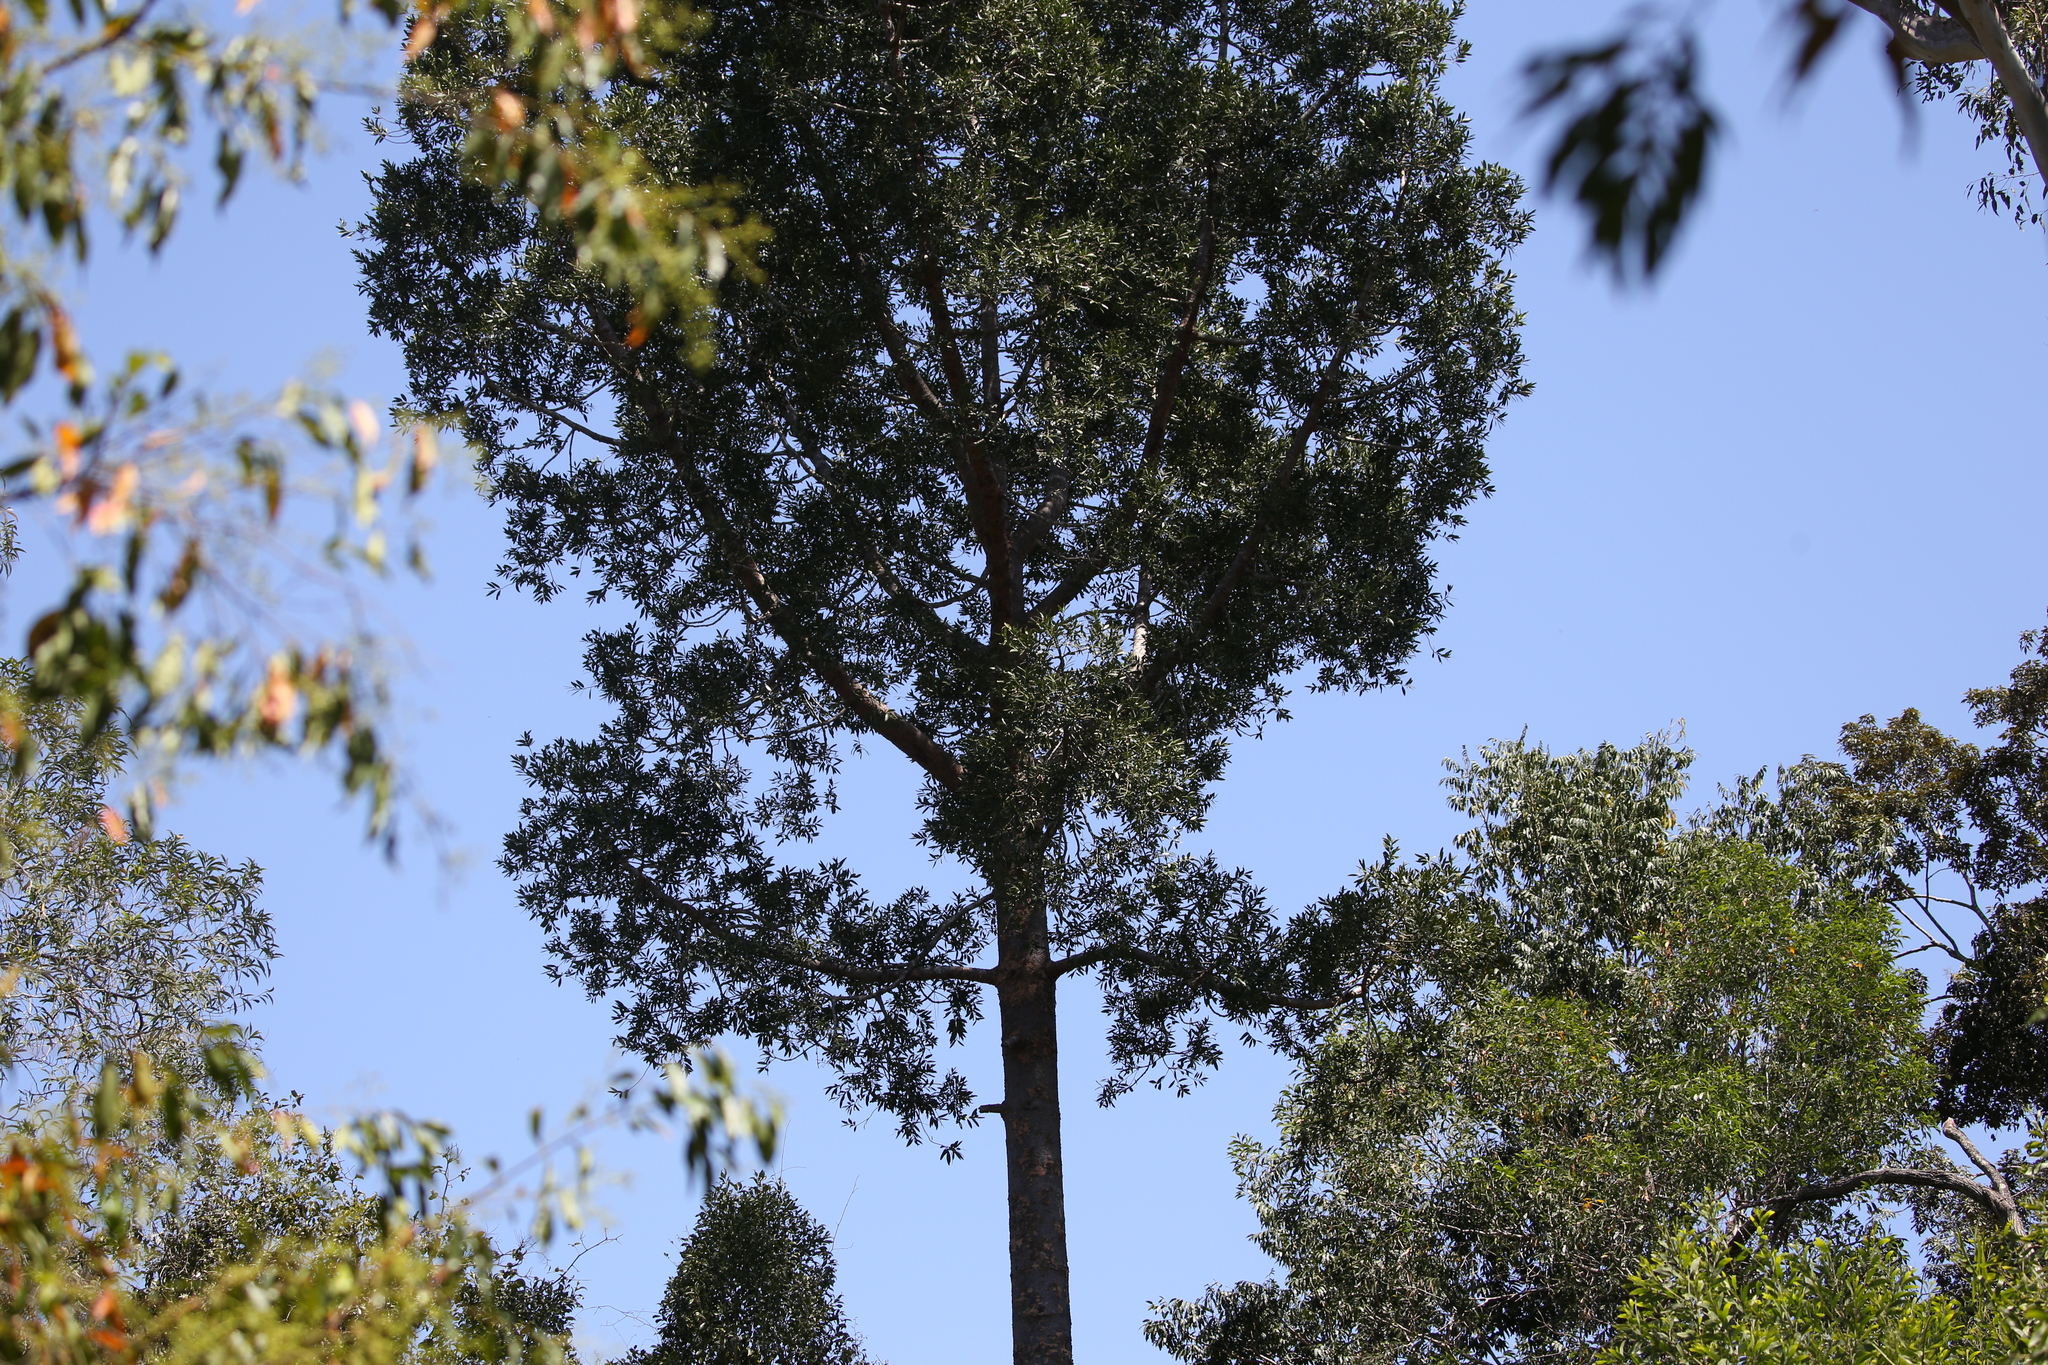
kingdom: Plantae
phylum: Tracheophyta
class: Pinopsida
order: Pinales
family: Araucariaceae
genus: Agathis
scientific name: Agathis robusta
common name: Australian-kauri
